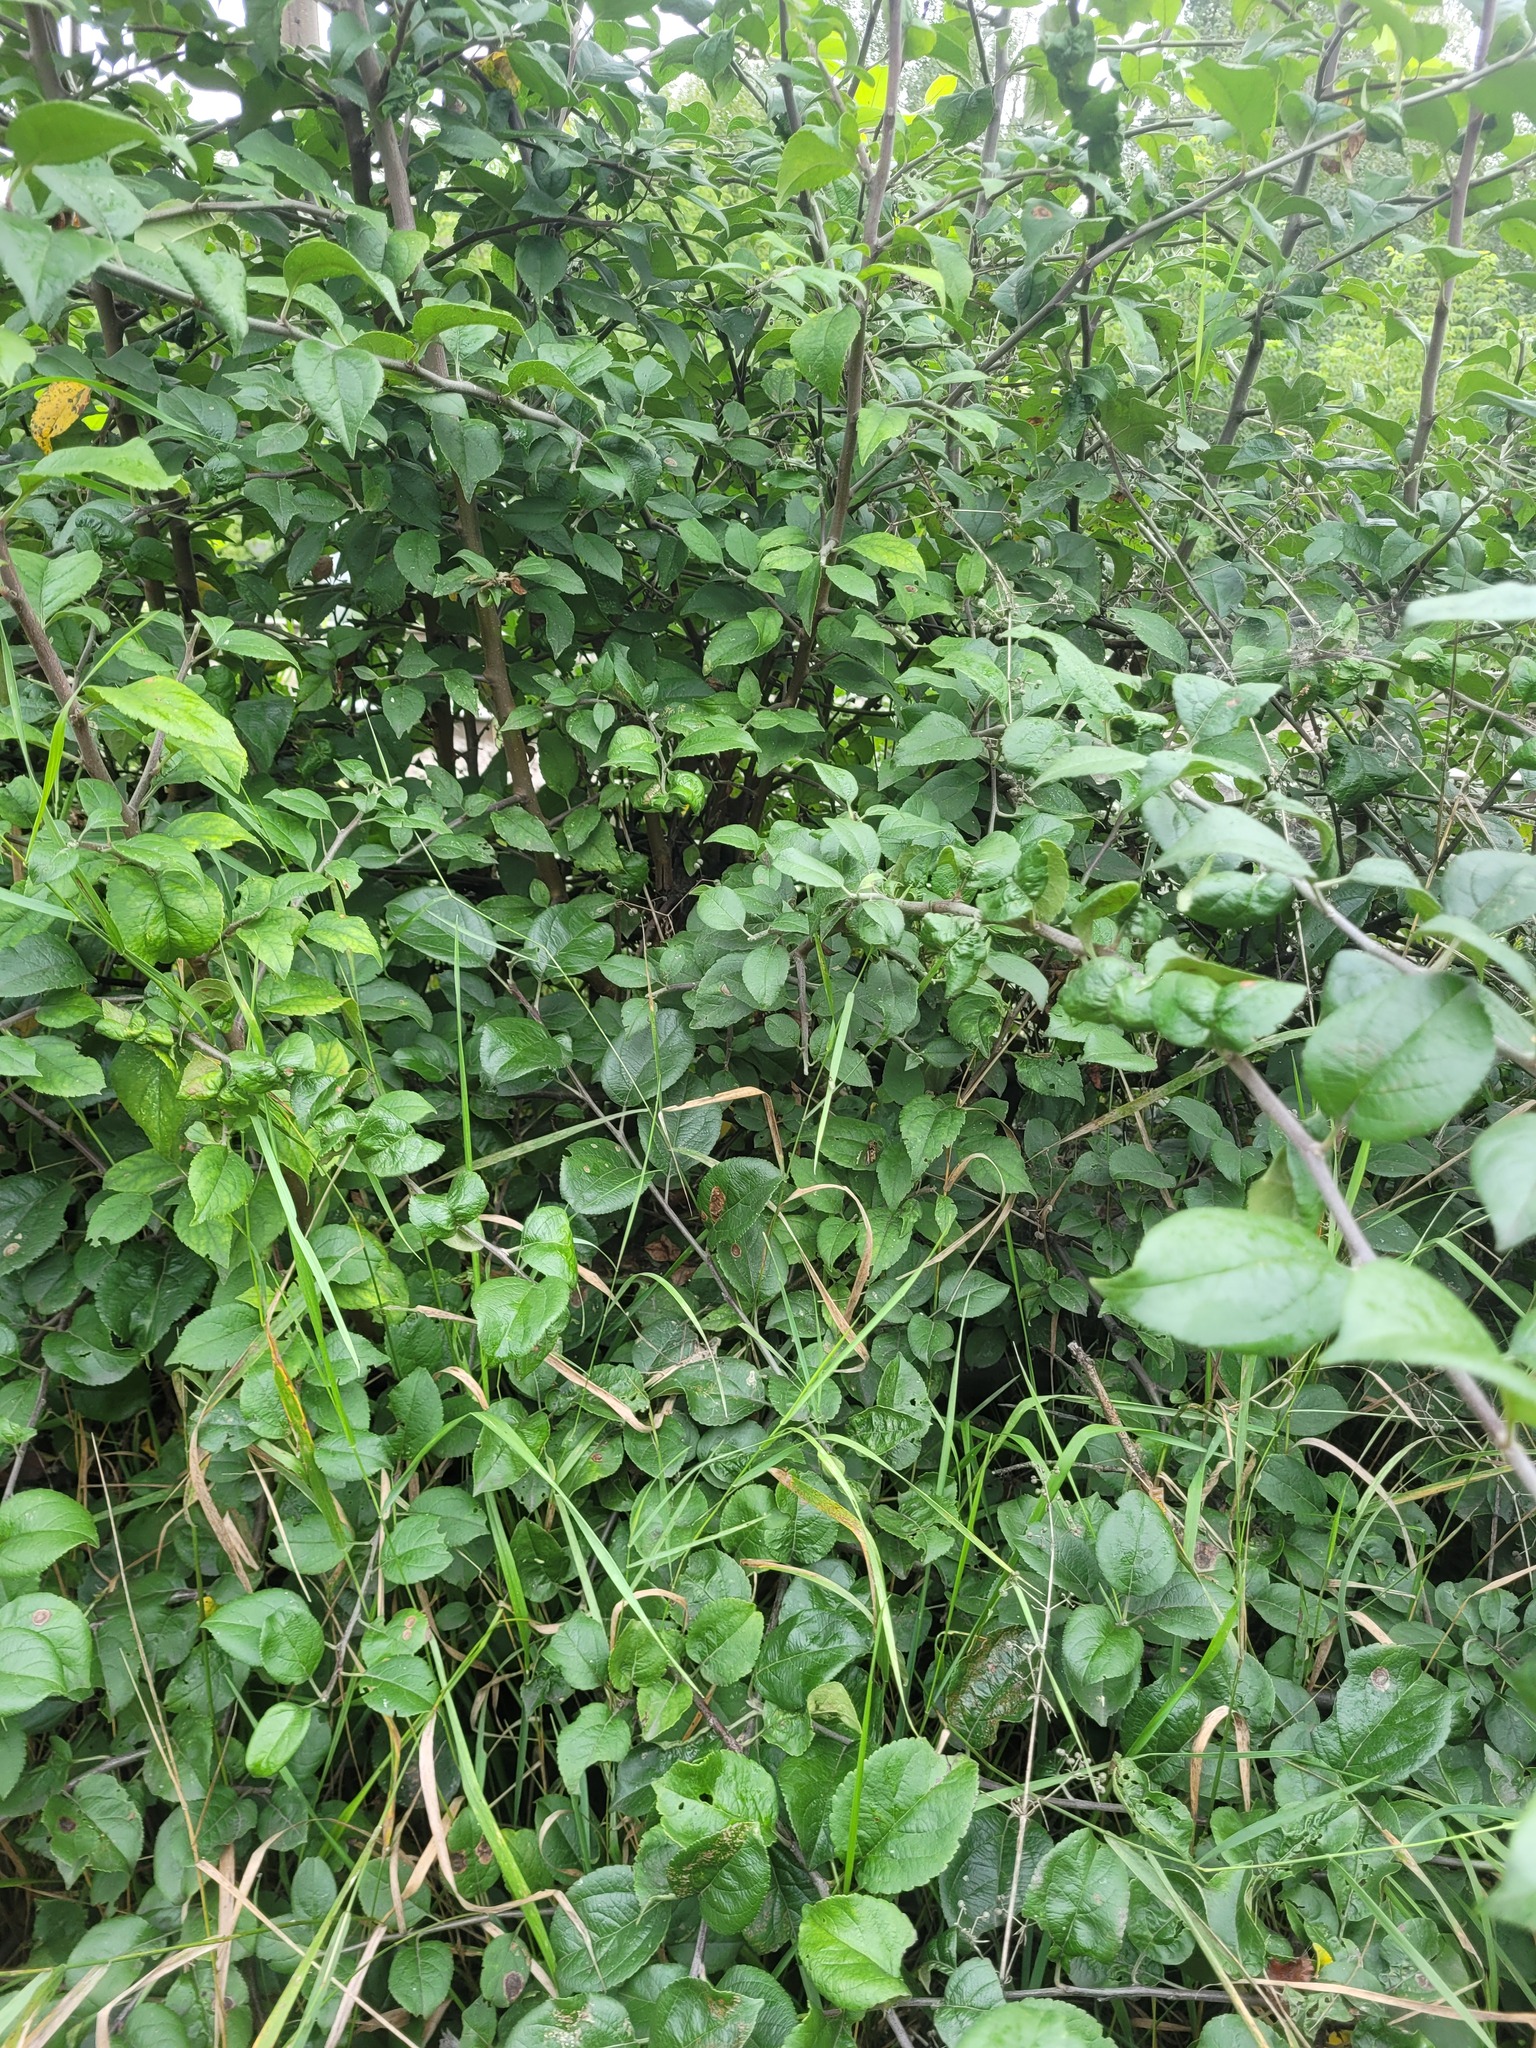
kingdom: Plantae
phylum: Tracheophyta
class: Magnoliopsida
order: Rosales
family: Rosaceae
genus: Malus
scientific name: Malus domestica
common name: Apple
